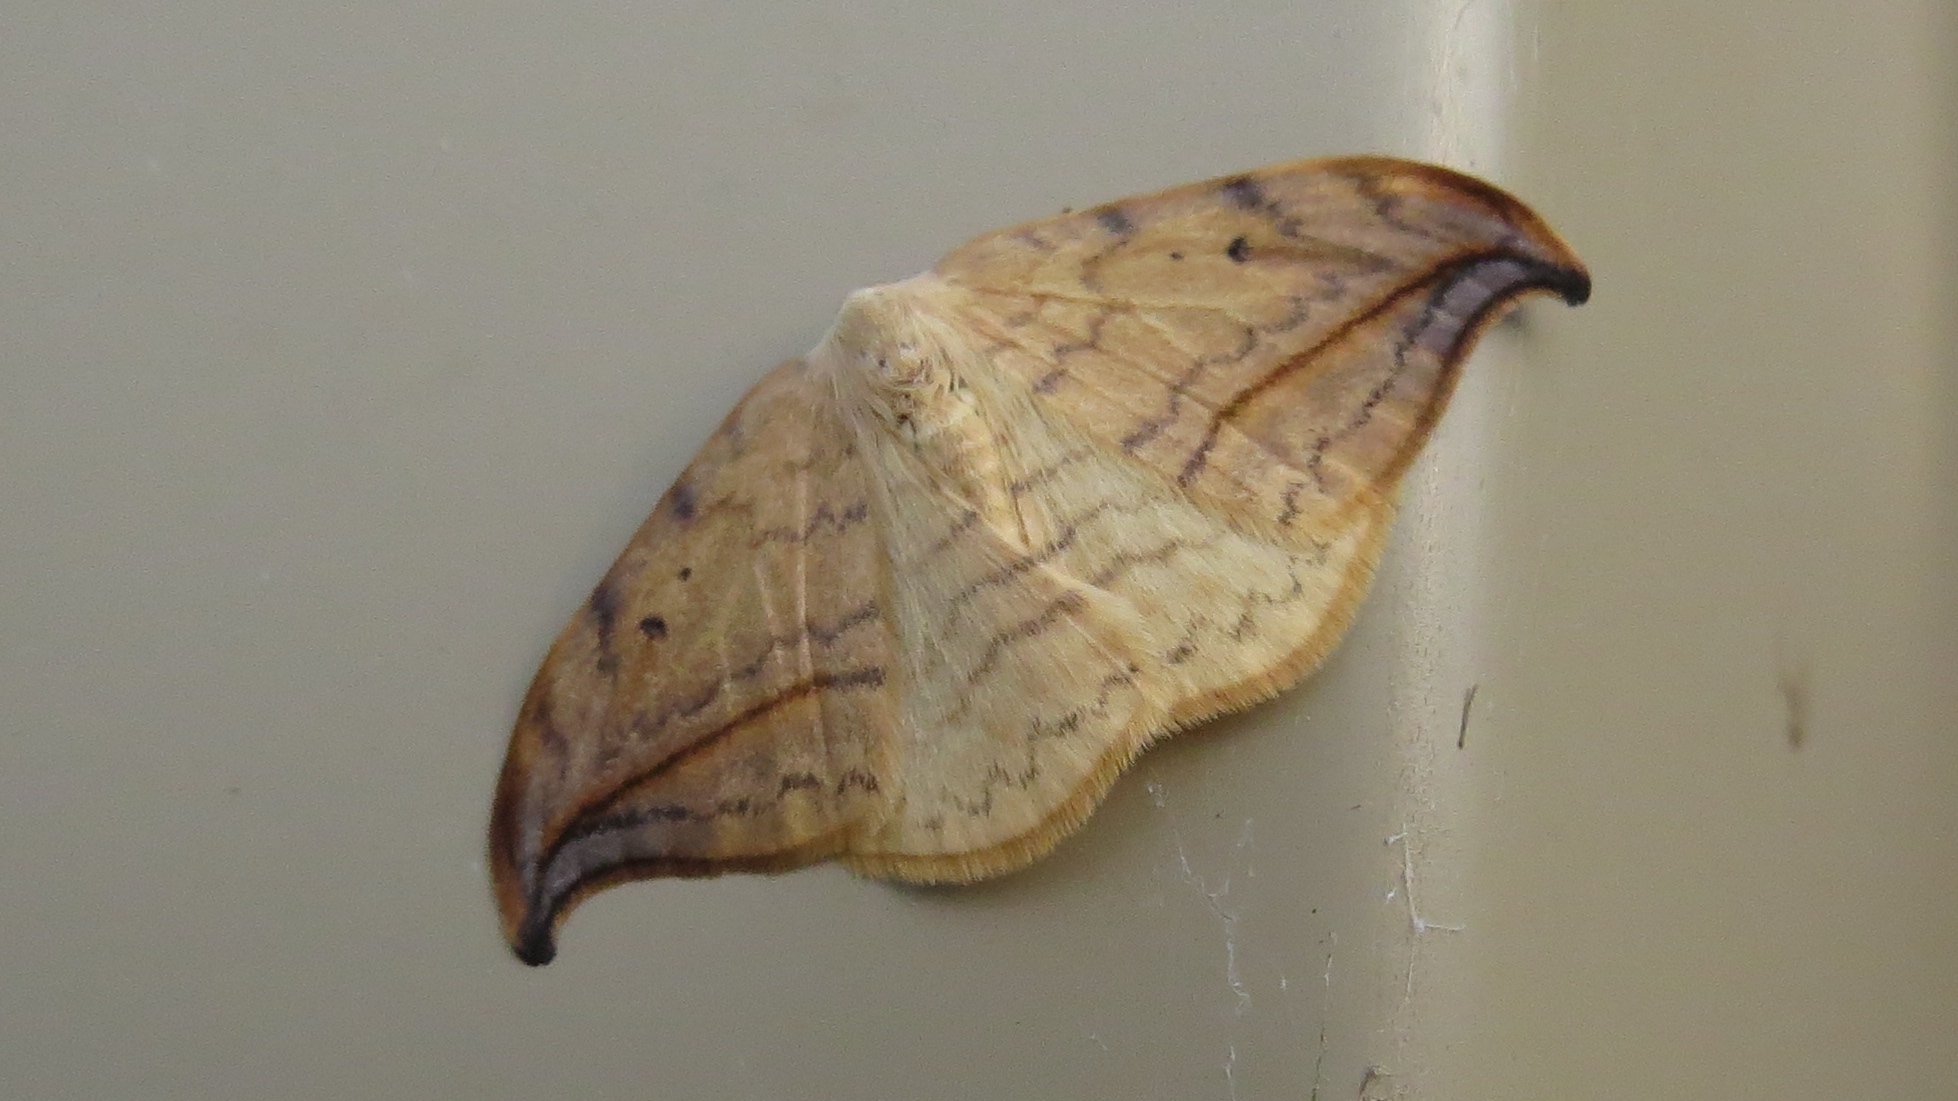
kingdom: Animalia
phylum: Arthropoda
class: Insecta
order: Lepidoptera
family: Drepanidae
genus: Drepana
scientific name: Drepana arcuata
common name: Arched hooktip moth
